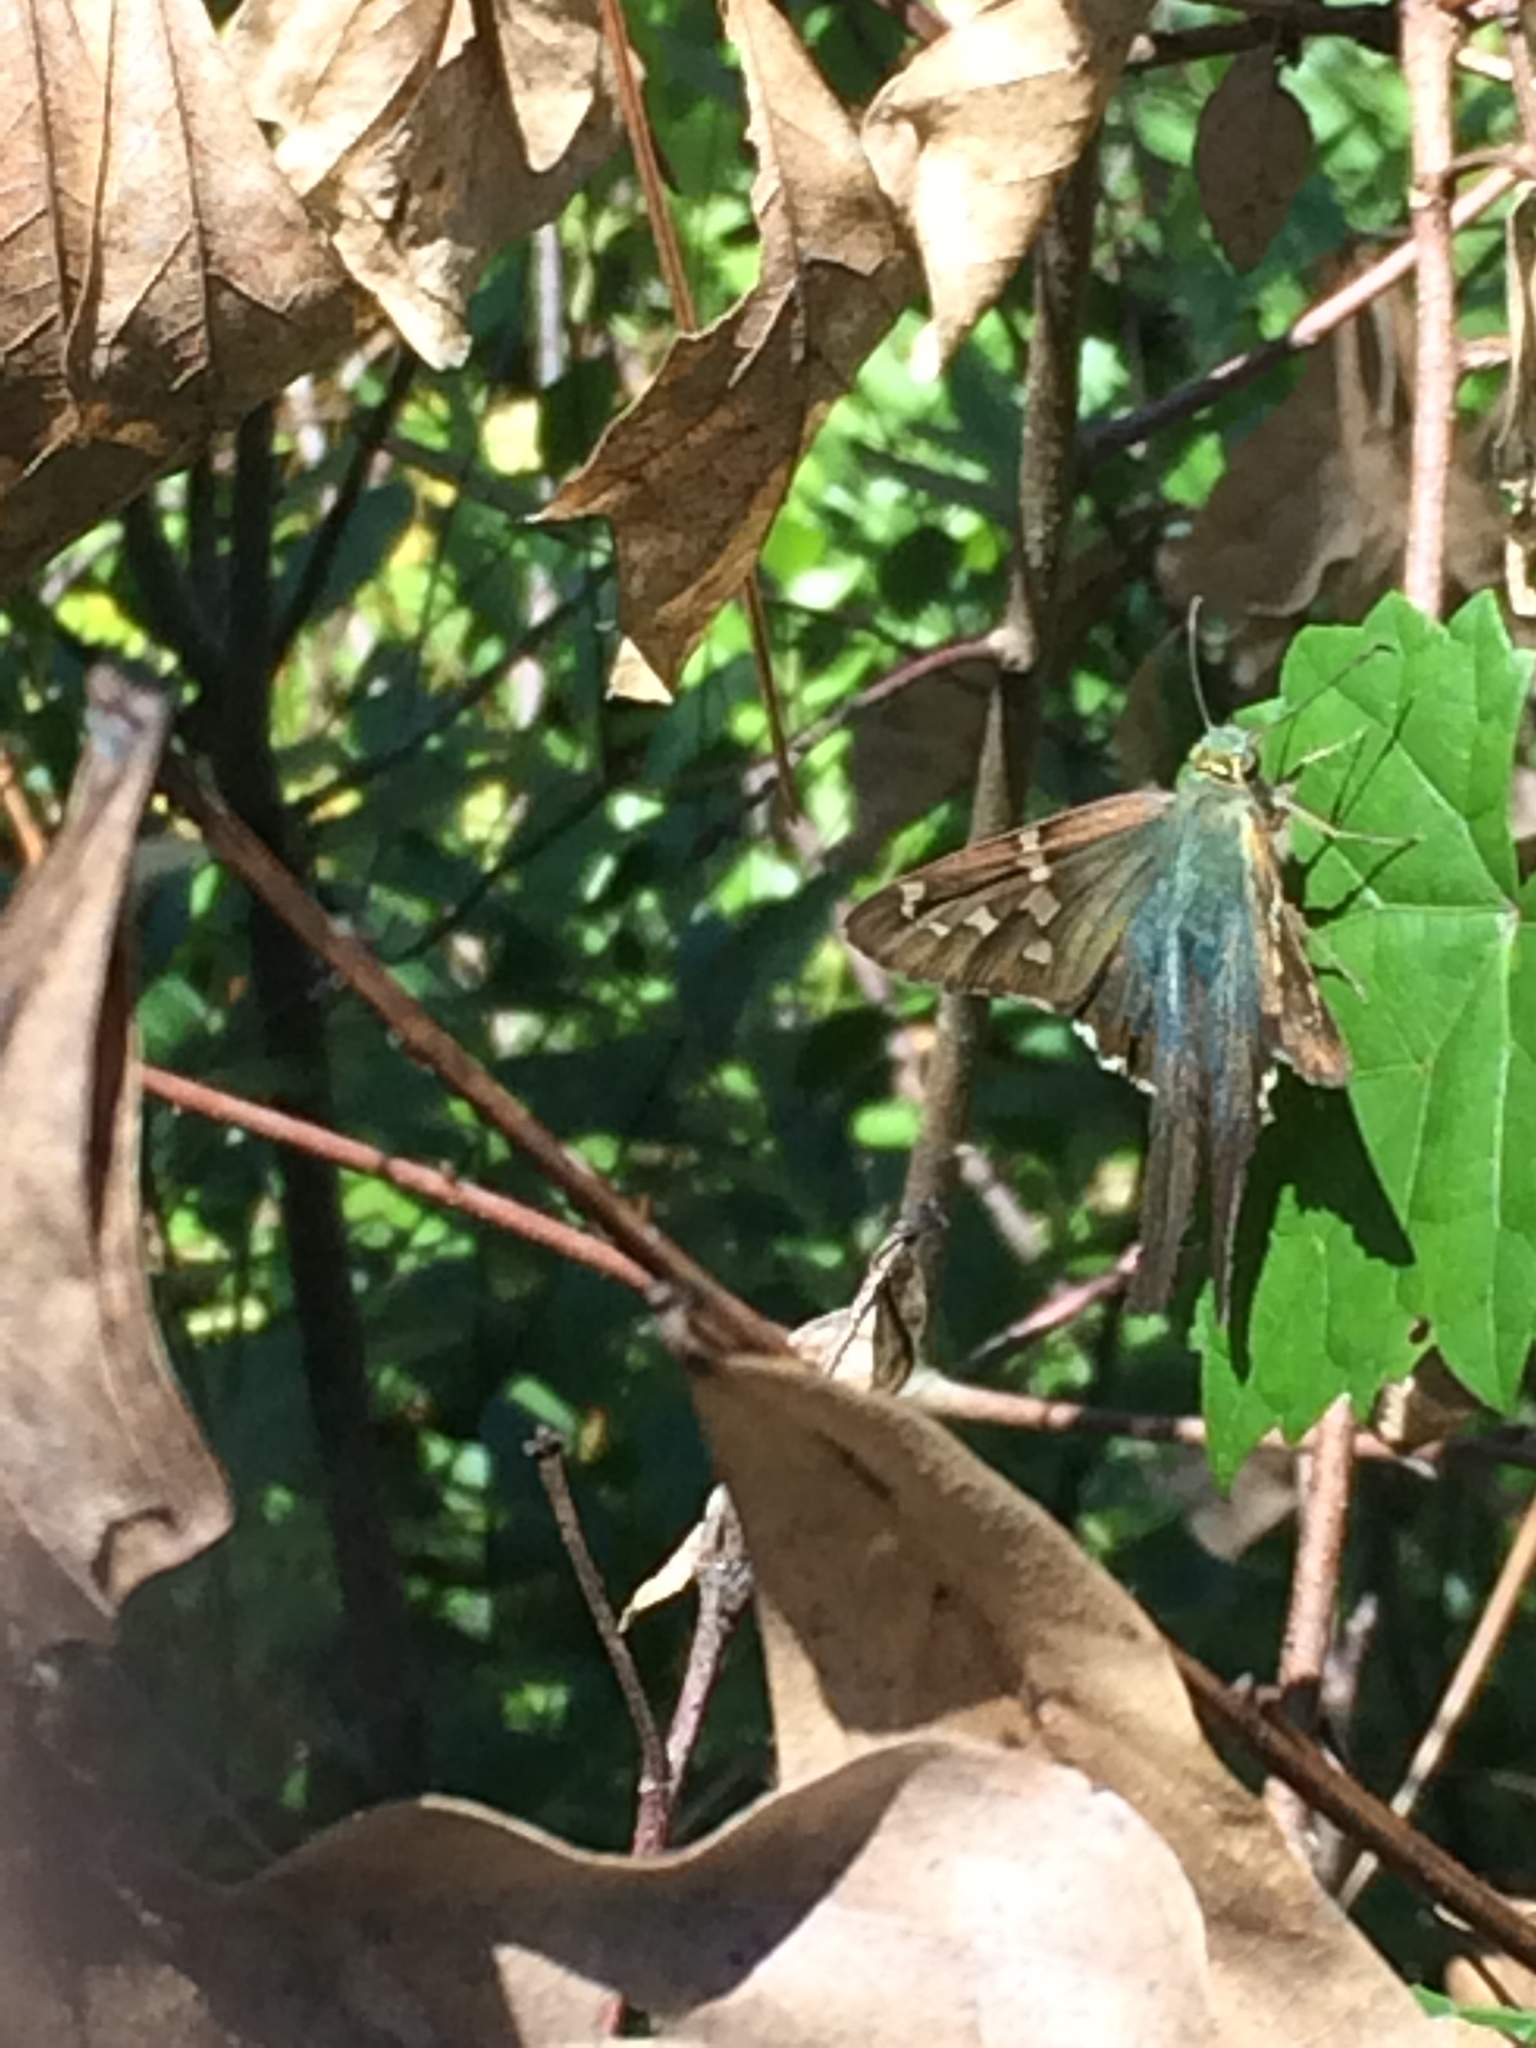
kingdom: Animalia
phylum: Arthropoda
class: Insecta
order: Lepidoptera
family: Hesperiidae
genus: Urbanus
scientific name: Urbanus proteus
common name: Long-tailed skipper
